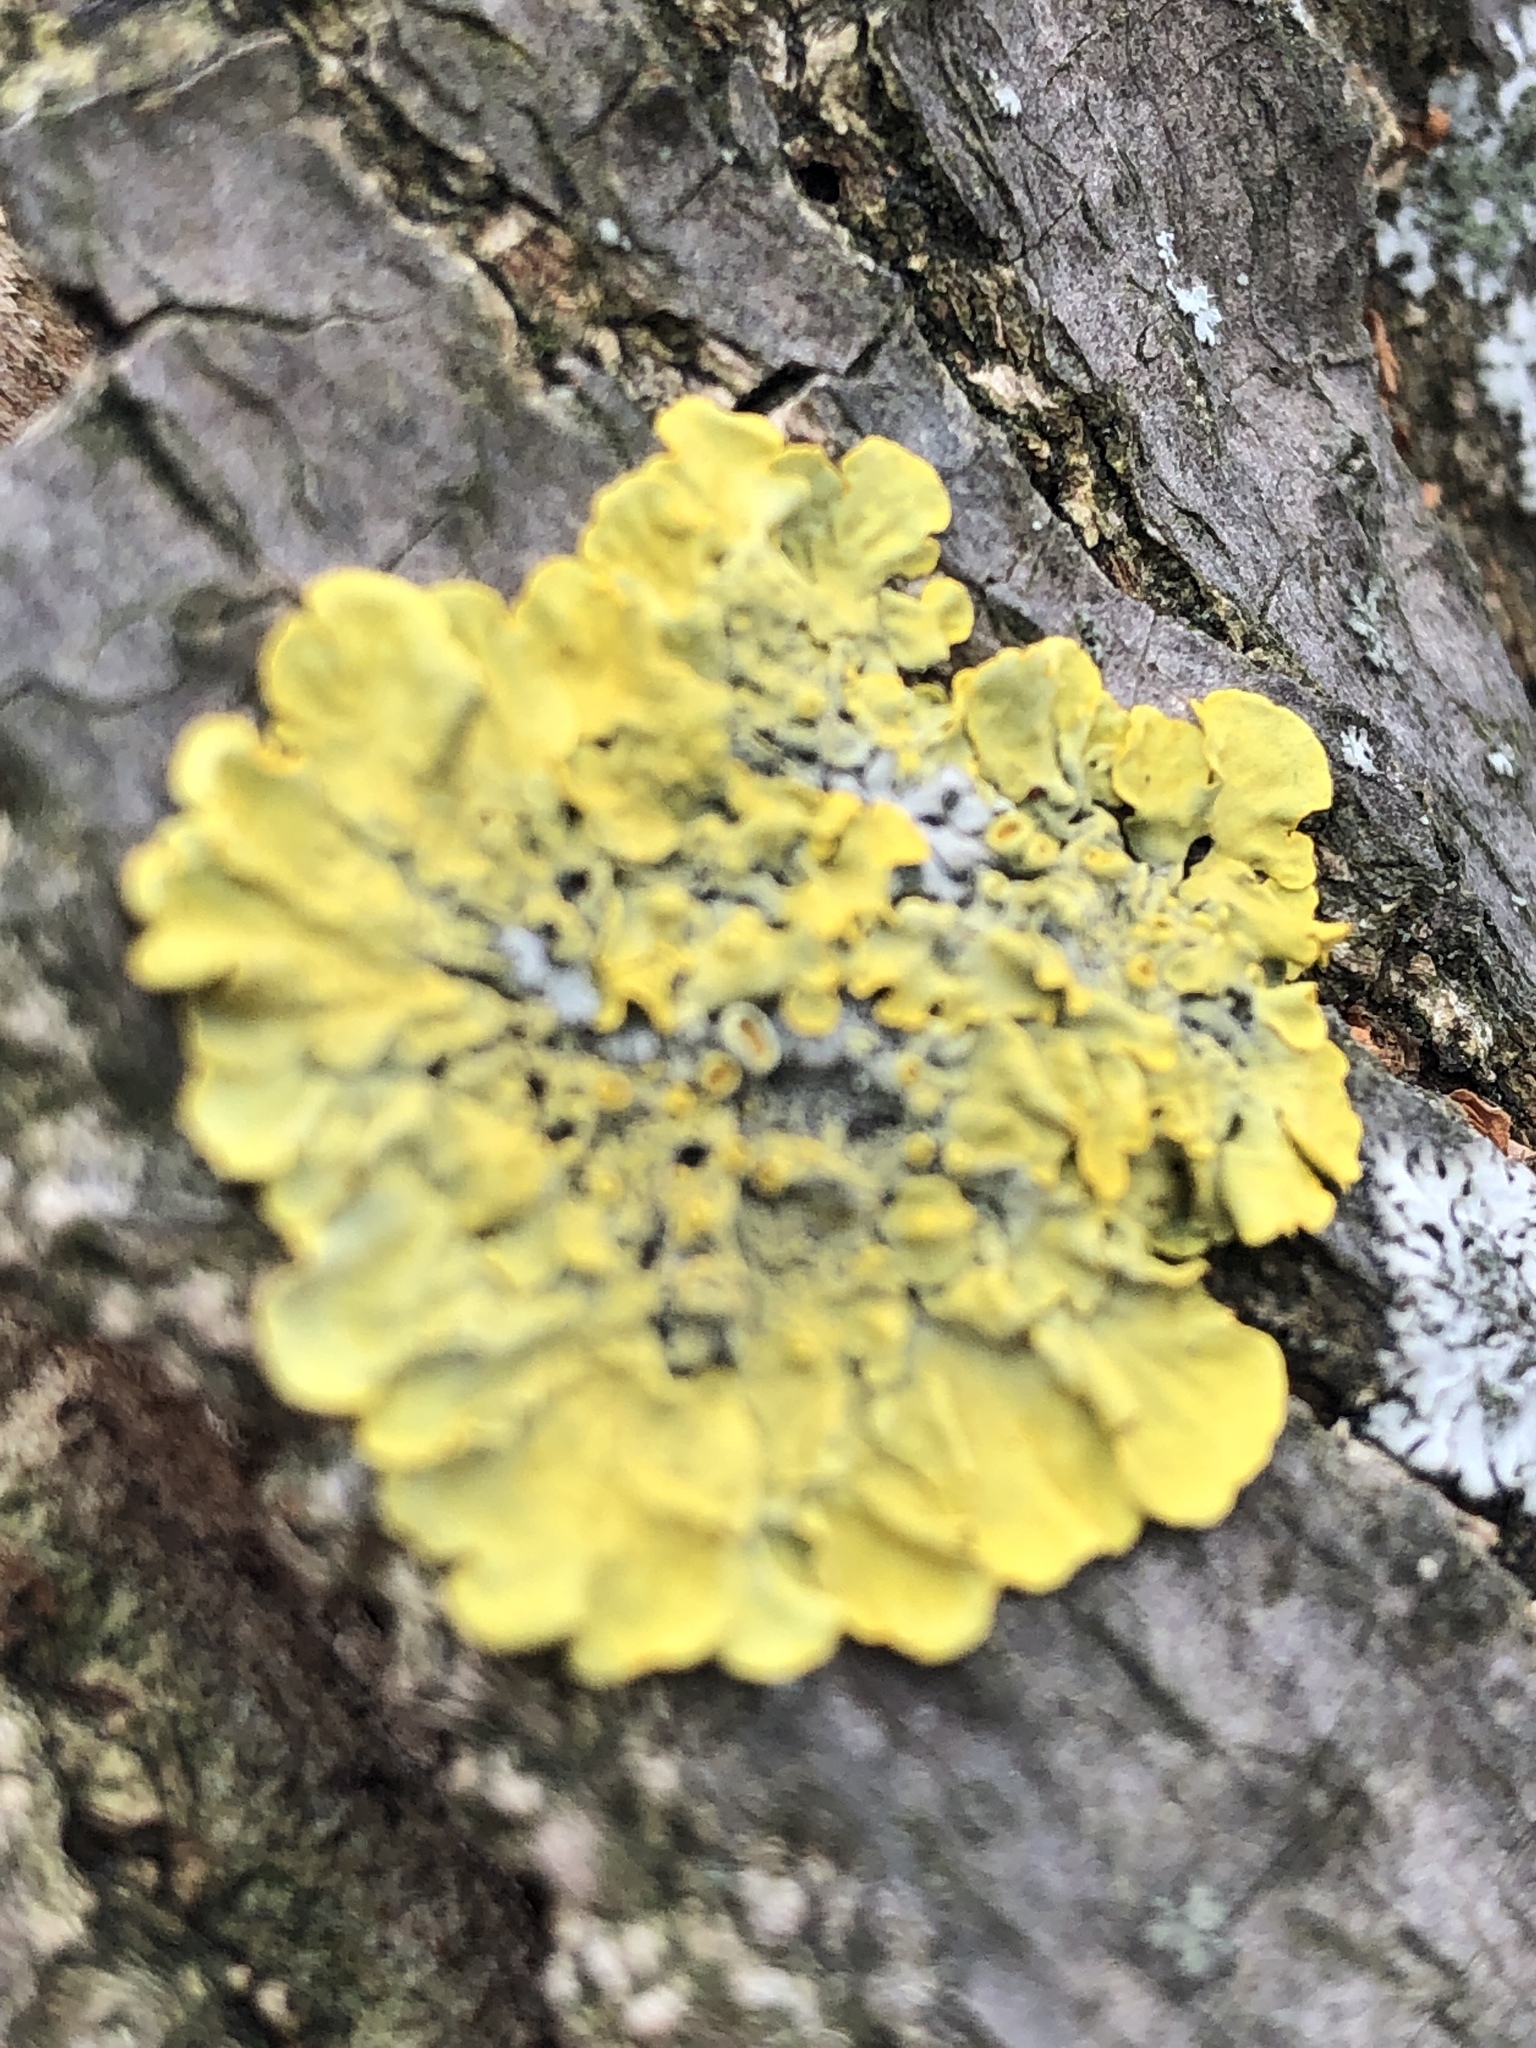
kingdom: Fungi
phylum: Ascomycota
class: Lecanoromycetes
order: Teloschistales
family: Teloschistaceae
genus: Xanthoria
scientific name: Xanthoria parietina
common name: Common orange lichen
